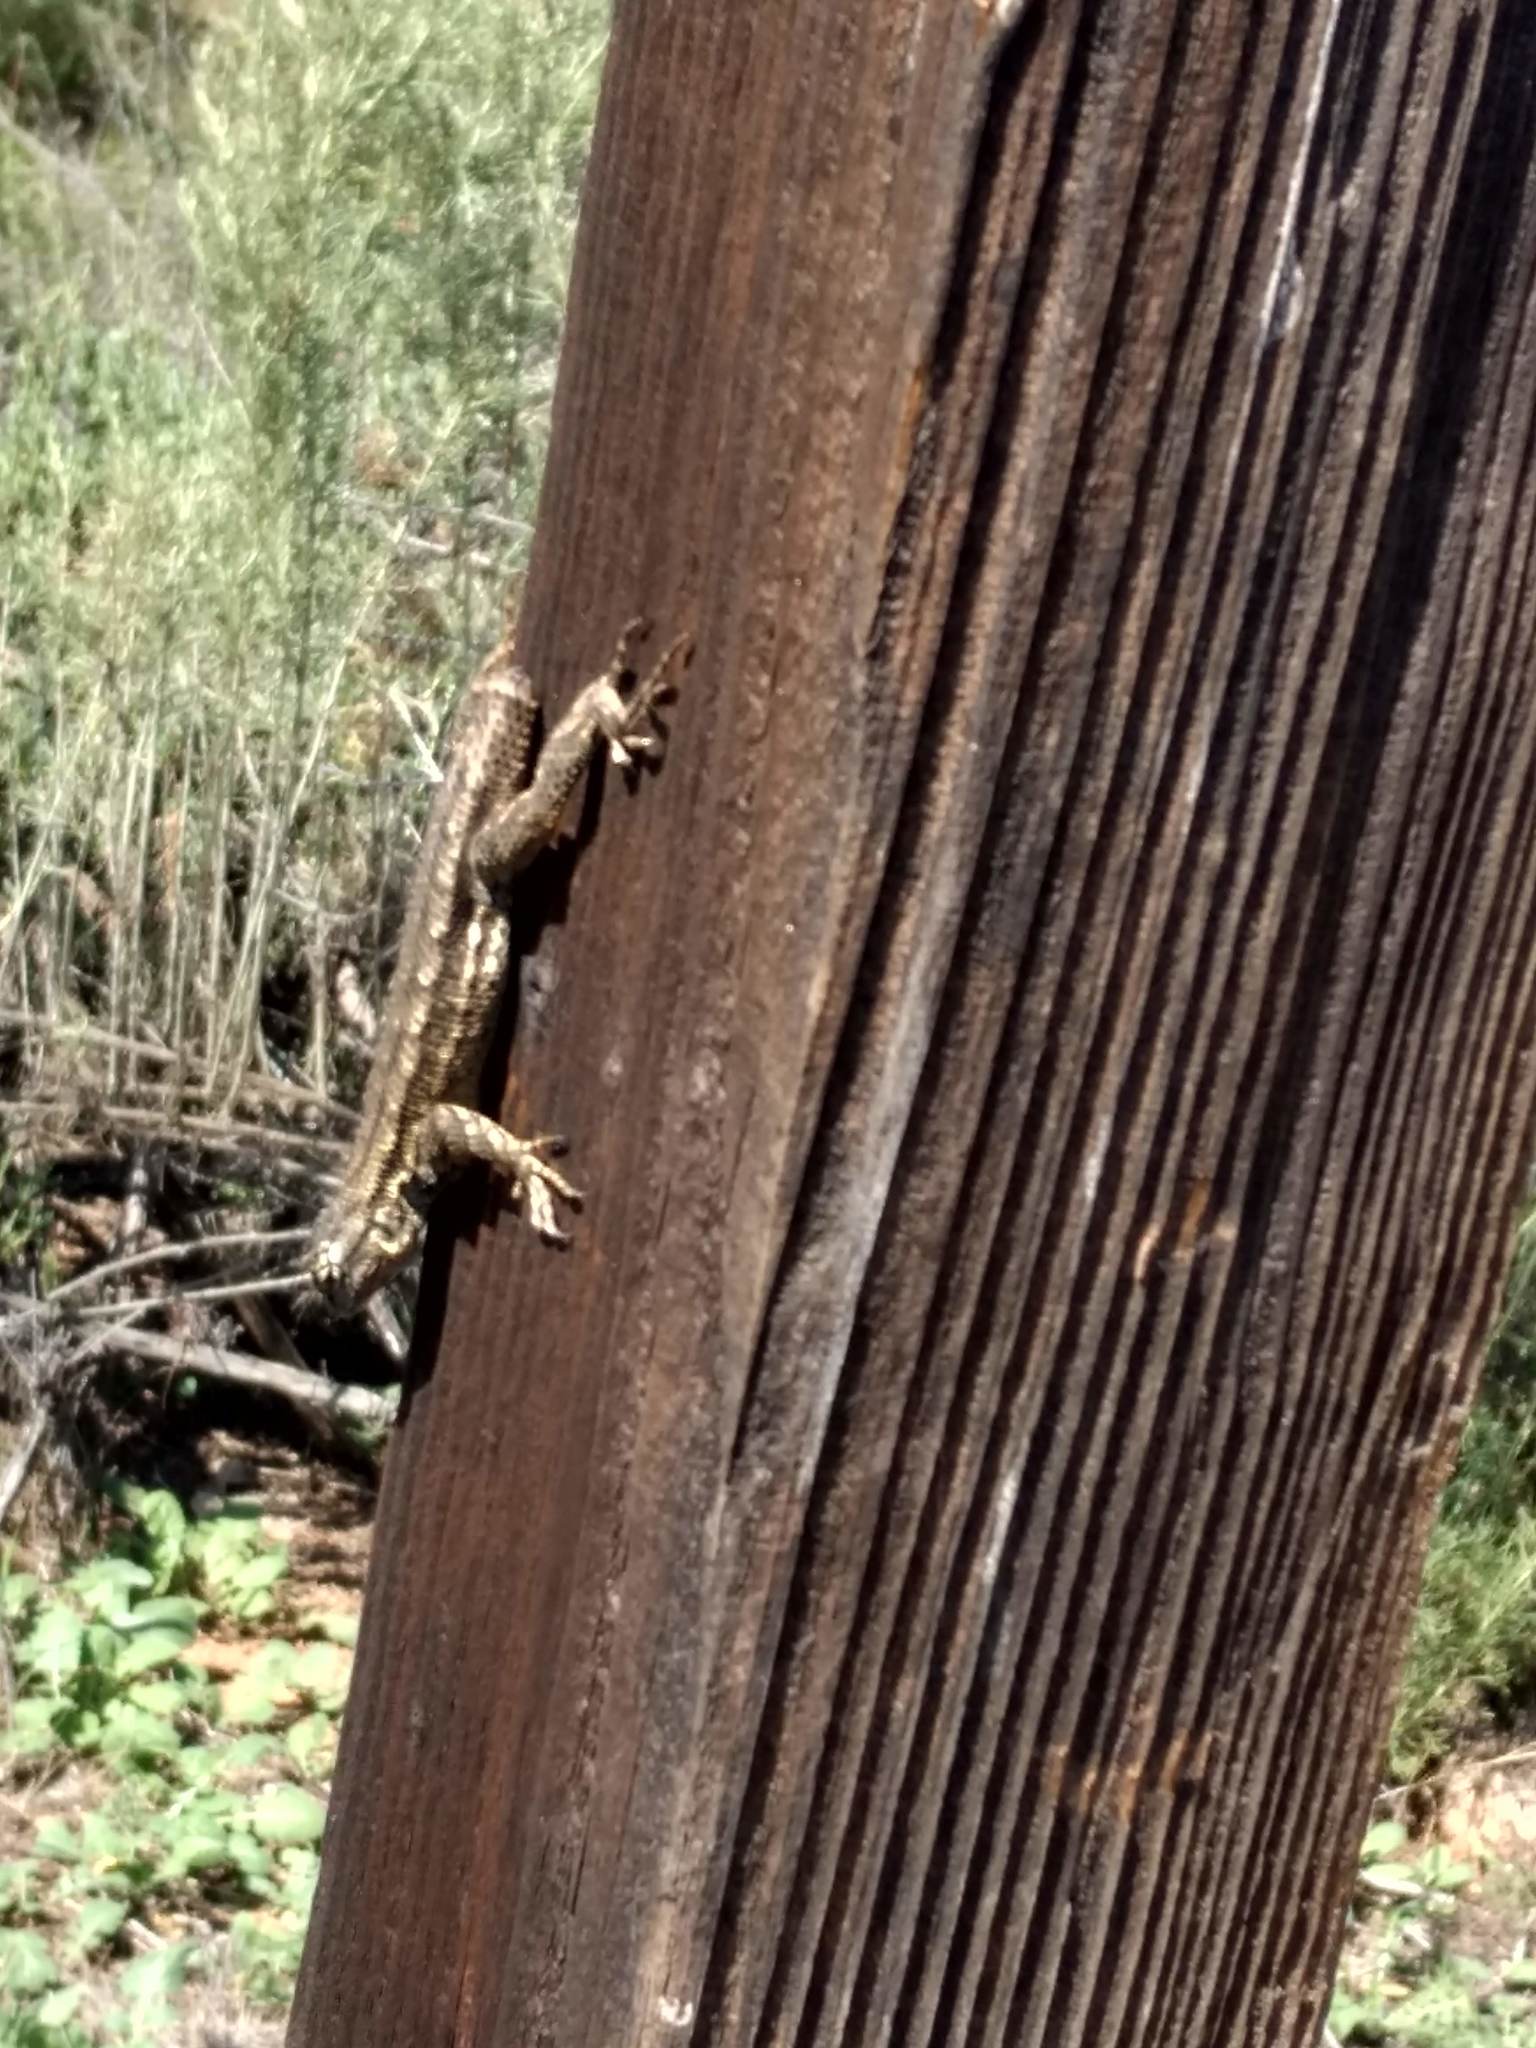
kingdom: Animalia
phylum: Chordata
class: Squamata
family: Phrynosomatidae
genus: Sceloporus
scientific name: Sceloporus occidentalis
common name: Western fence lizard
